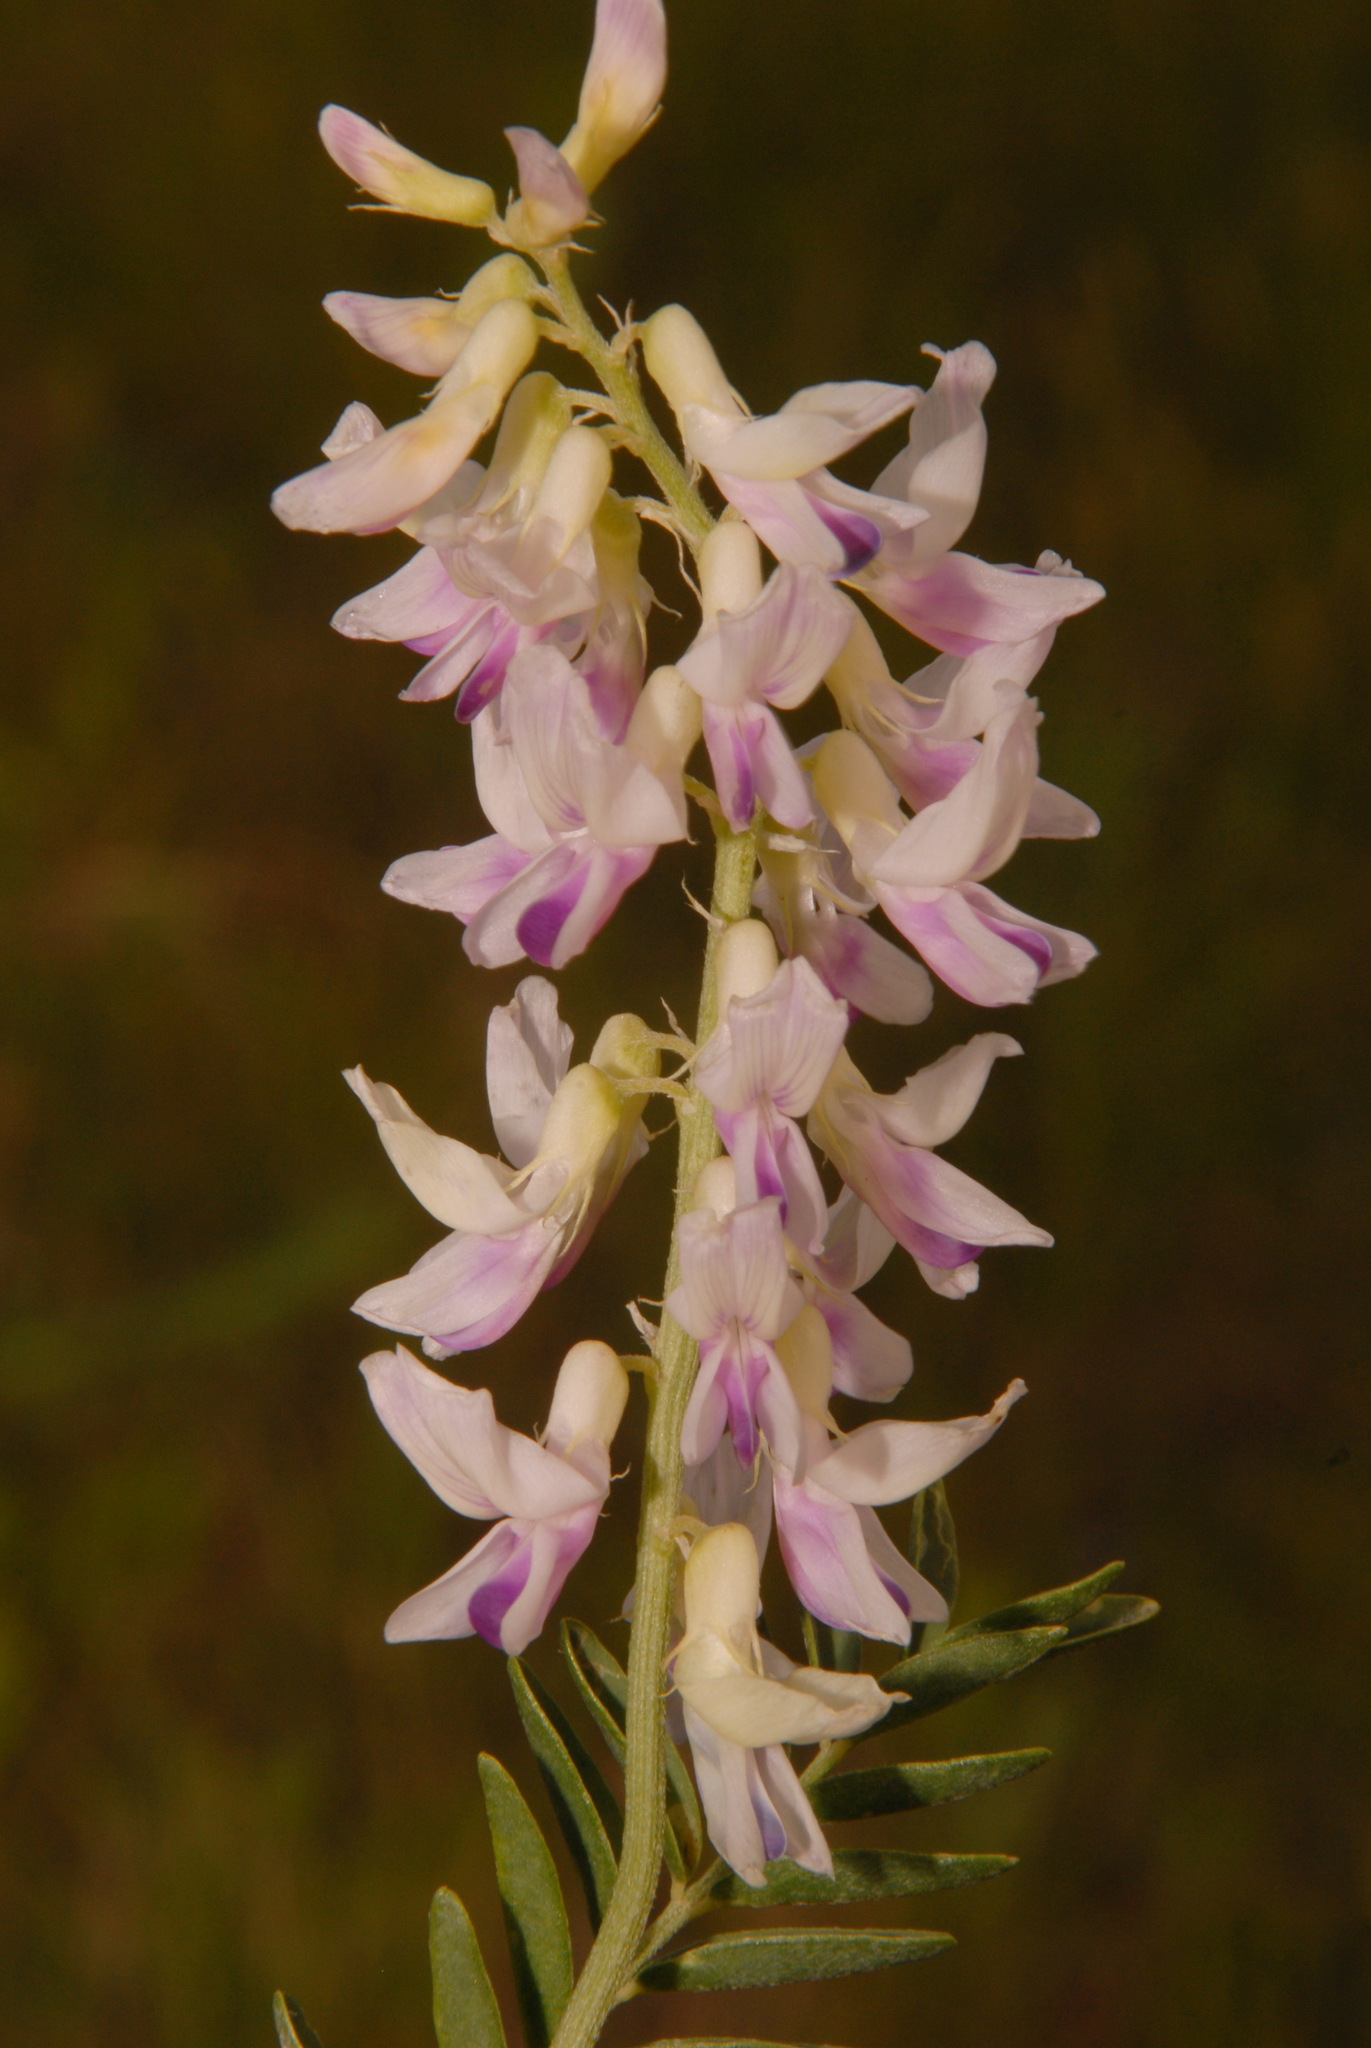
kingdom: Plantae
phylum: Tracheophyta
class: Magnoliopsida
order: Fabales
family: Fabaceae
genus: Astragalus
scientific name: Astragalus bisulcatus
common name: Two-groove milk-vetch
